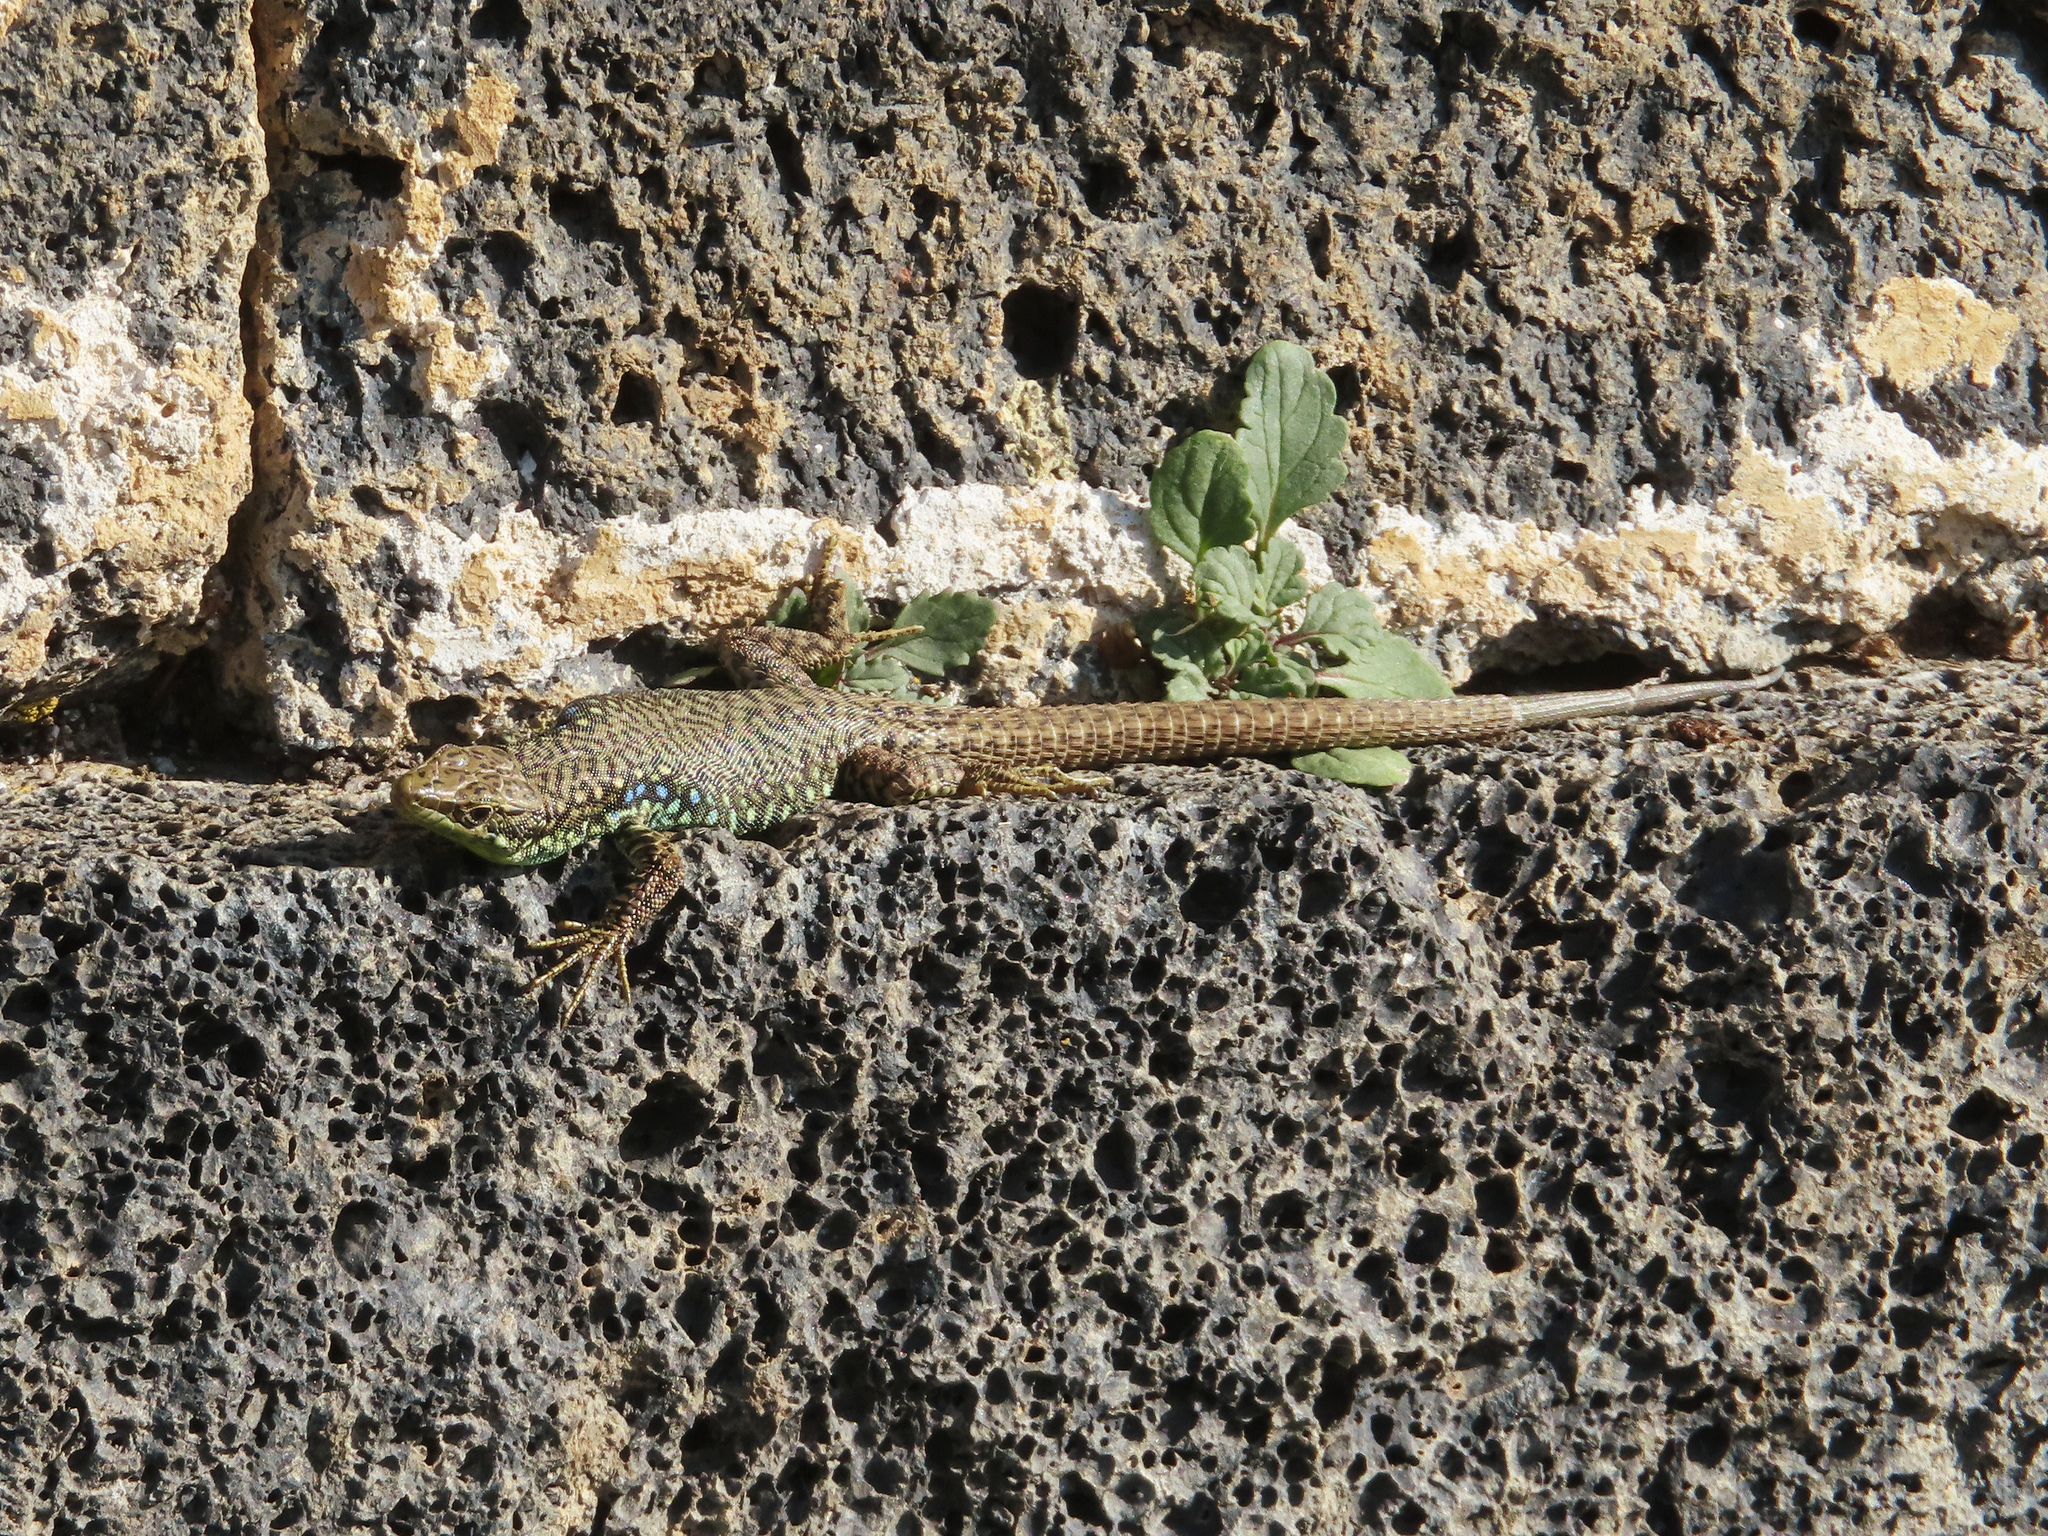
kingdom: Animalia
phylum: Chordata
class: Squamata
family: Lacertidae
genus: Darevskia
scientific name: Darevskia
